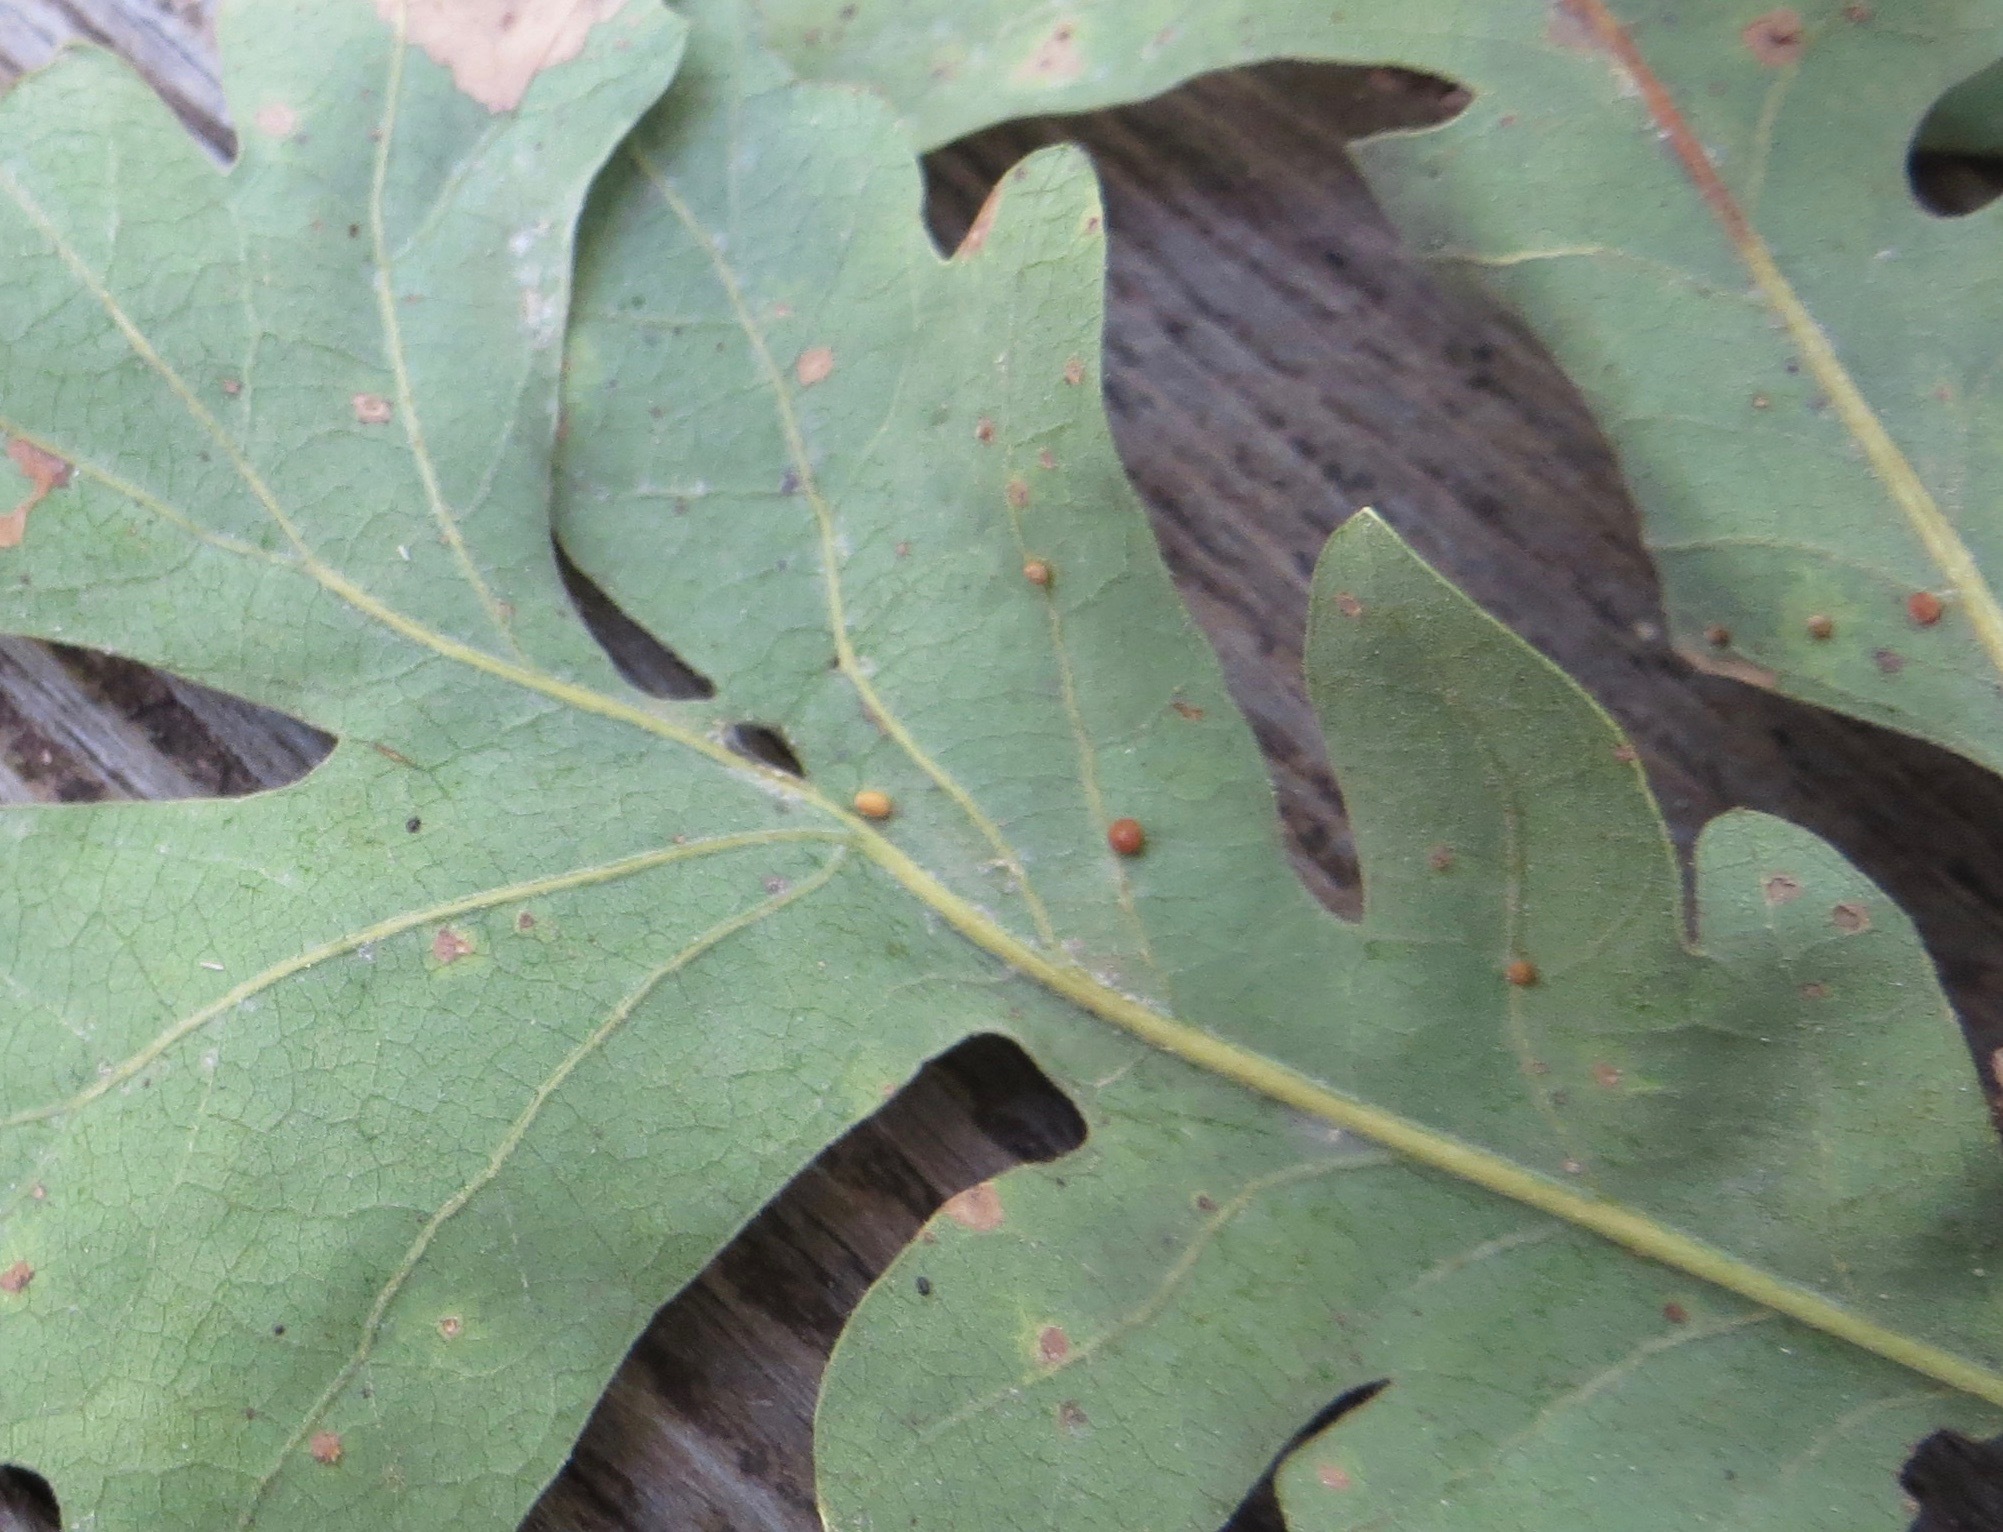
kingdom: Animalia
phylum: Arthropoda
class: Insecta
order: Hymenoptera
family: Cynipidae
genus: Neuroterus
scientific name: Neuroterus saltarius
